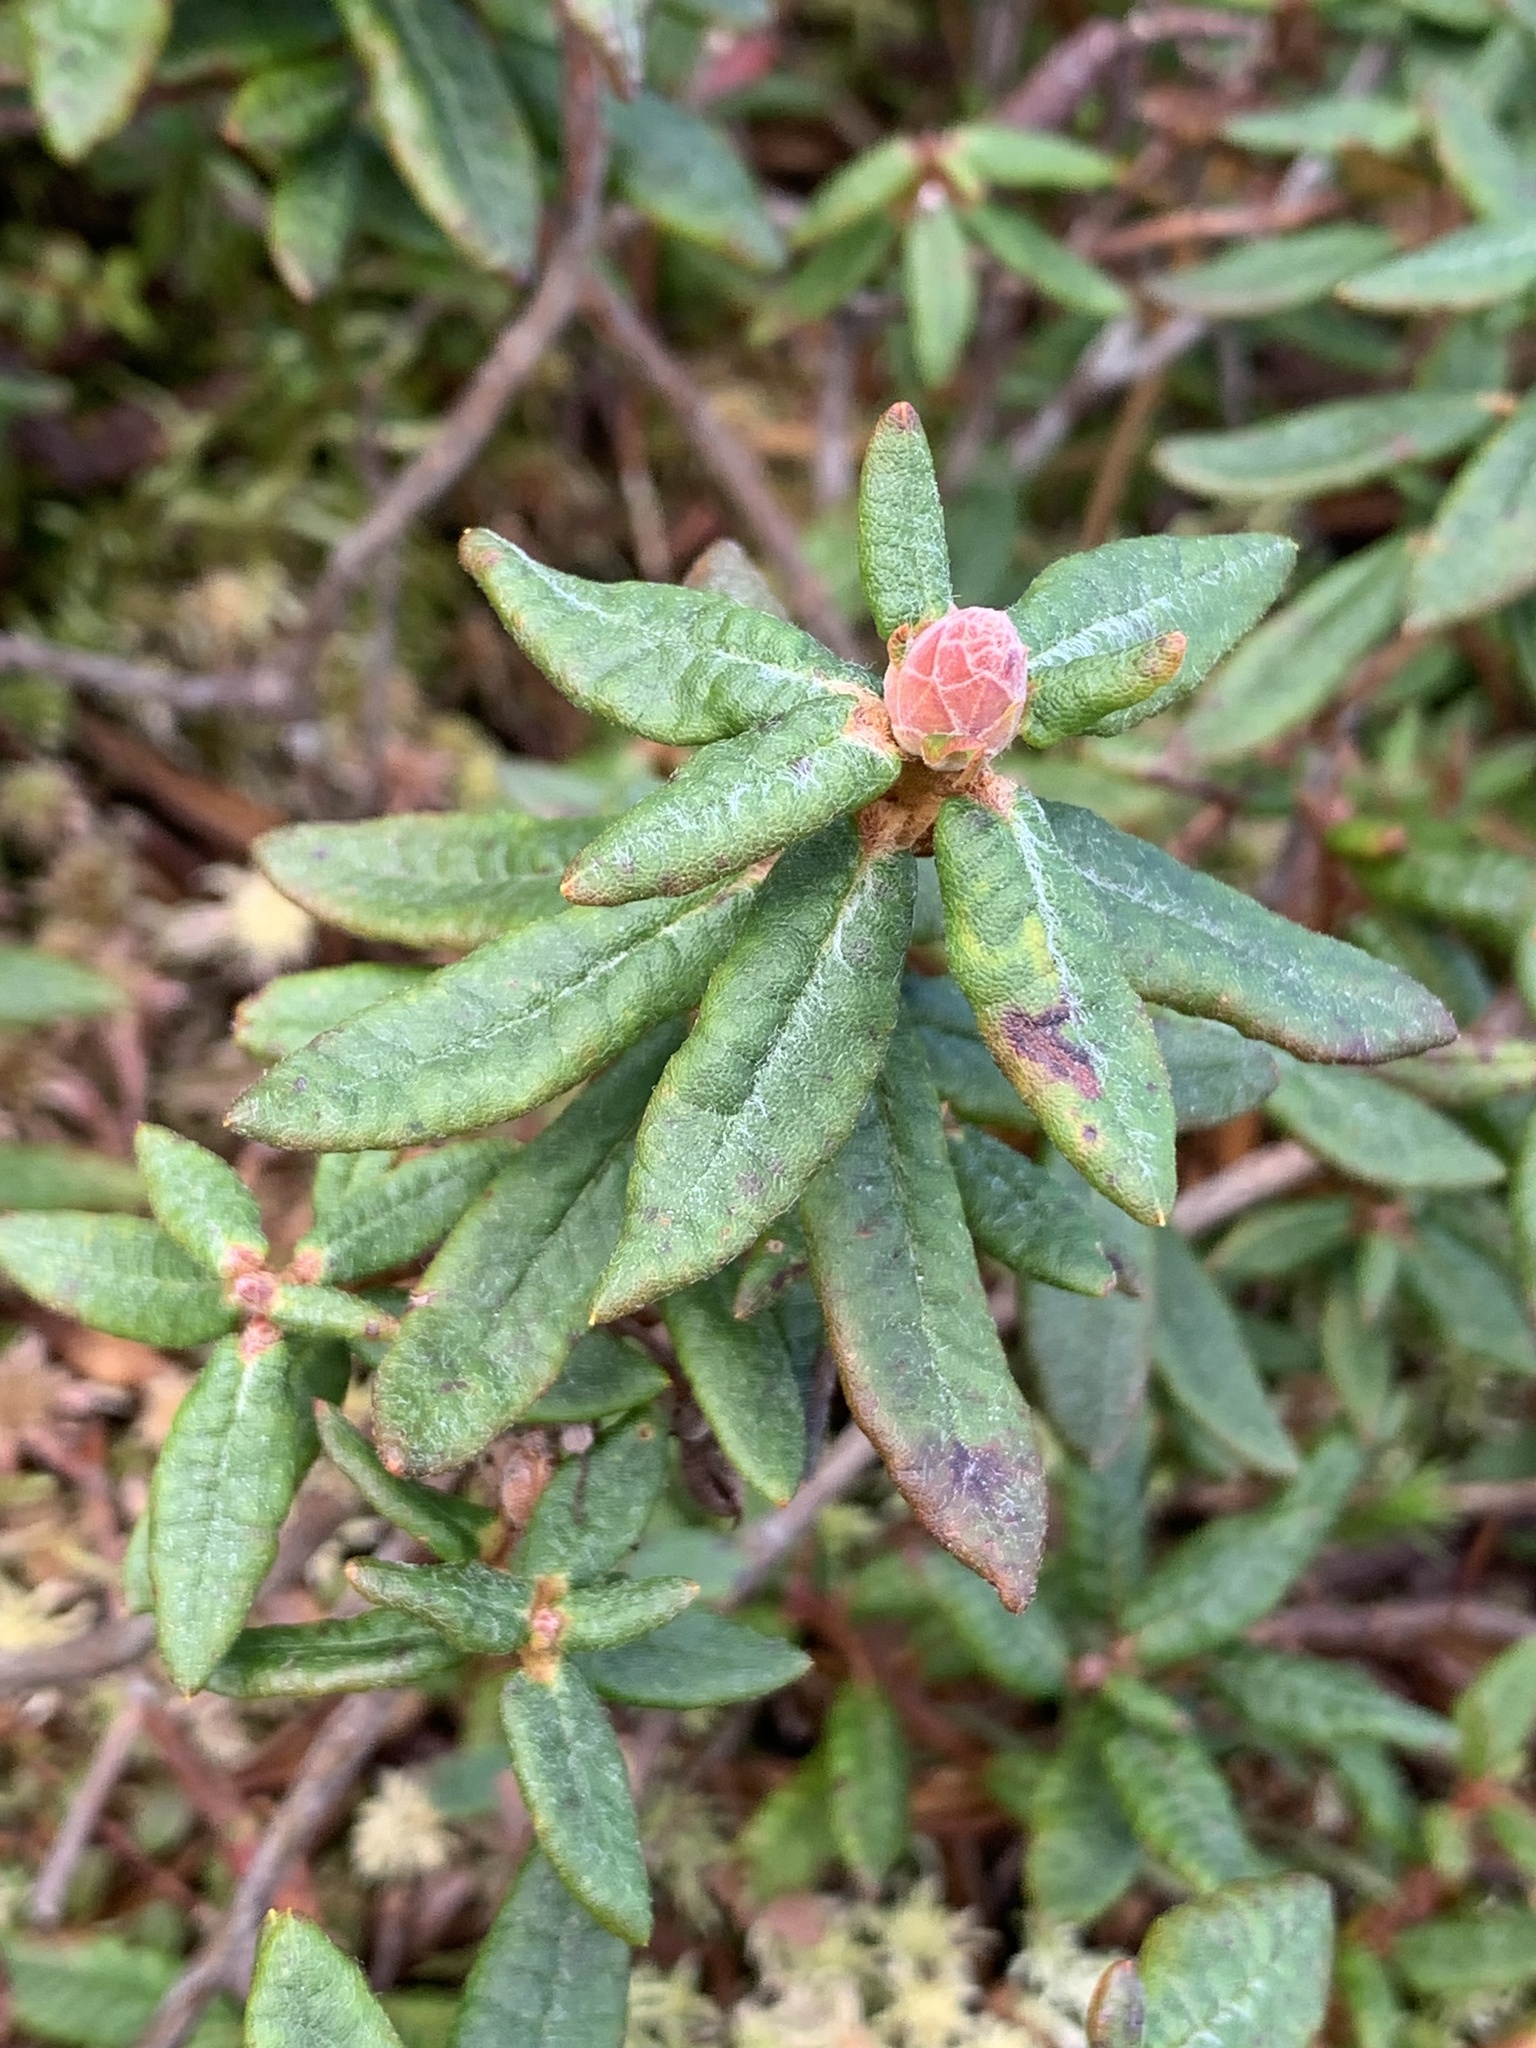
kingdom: Plantae
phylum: Tracheophyta
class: Magnoliopsida
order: Ericales
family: Ericaceae
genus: Rhododendron
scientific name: Rhododendron groenlandicum
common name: Bog labrador tea
